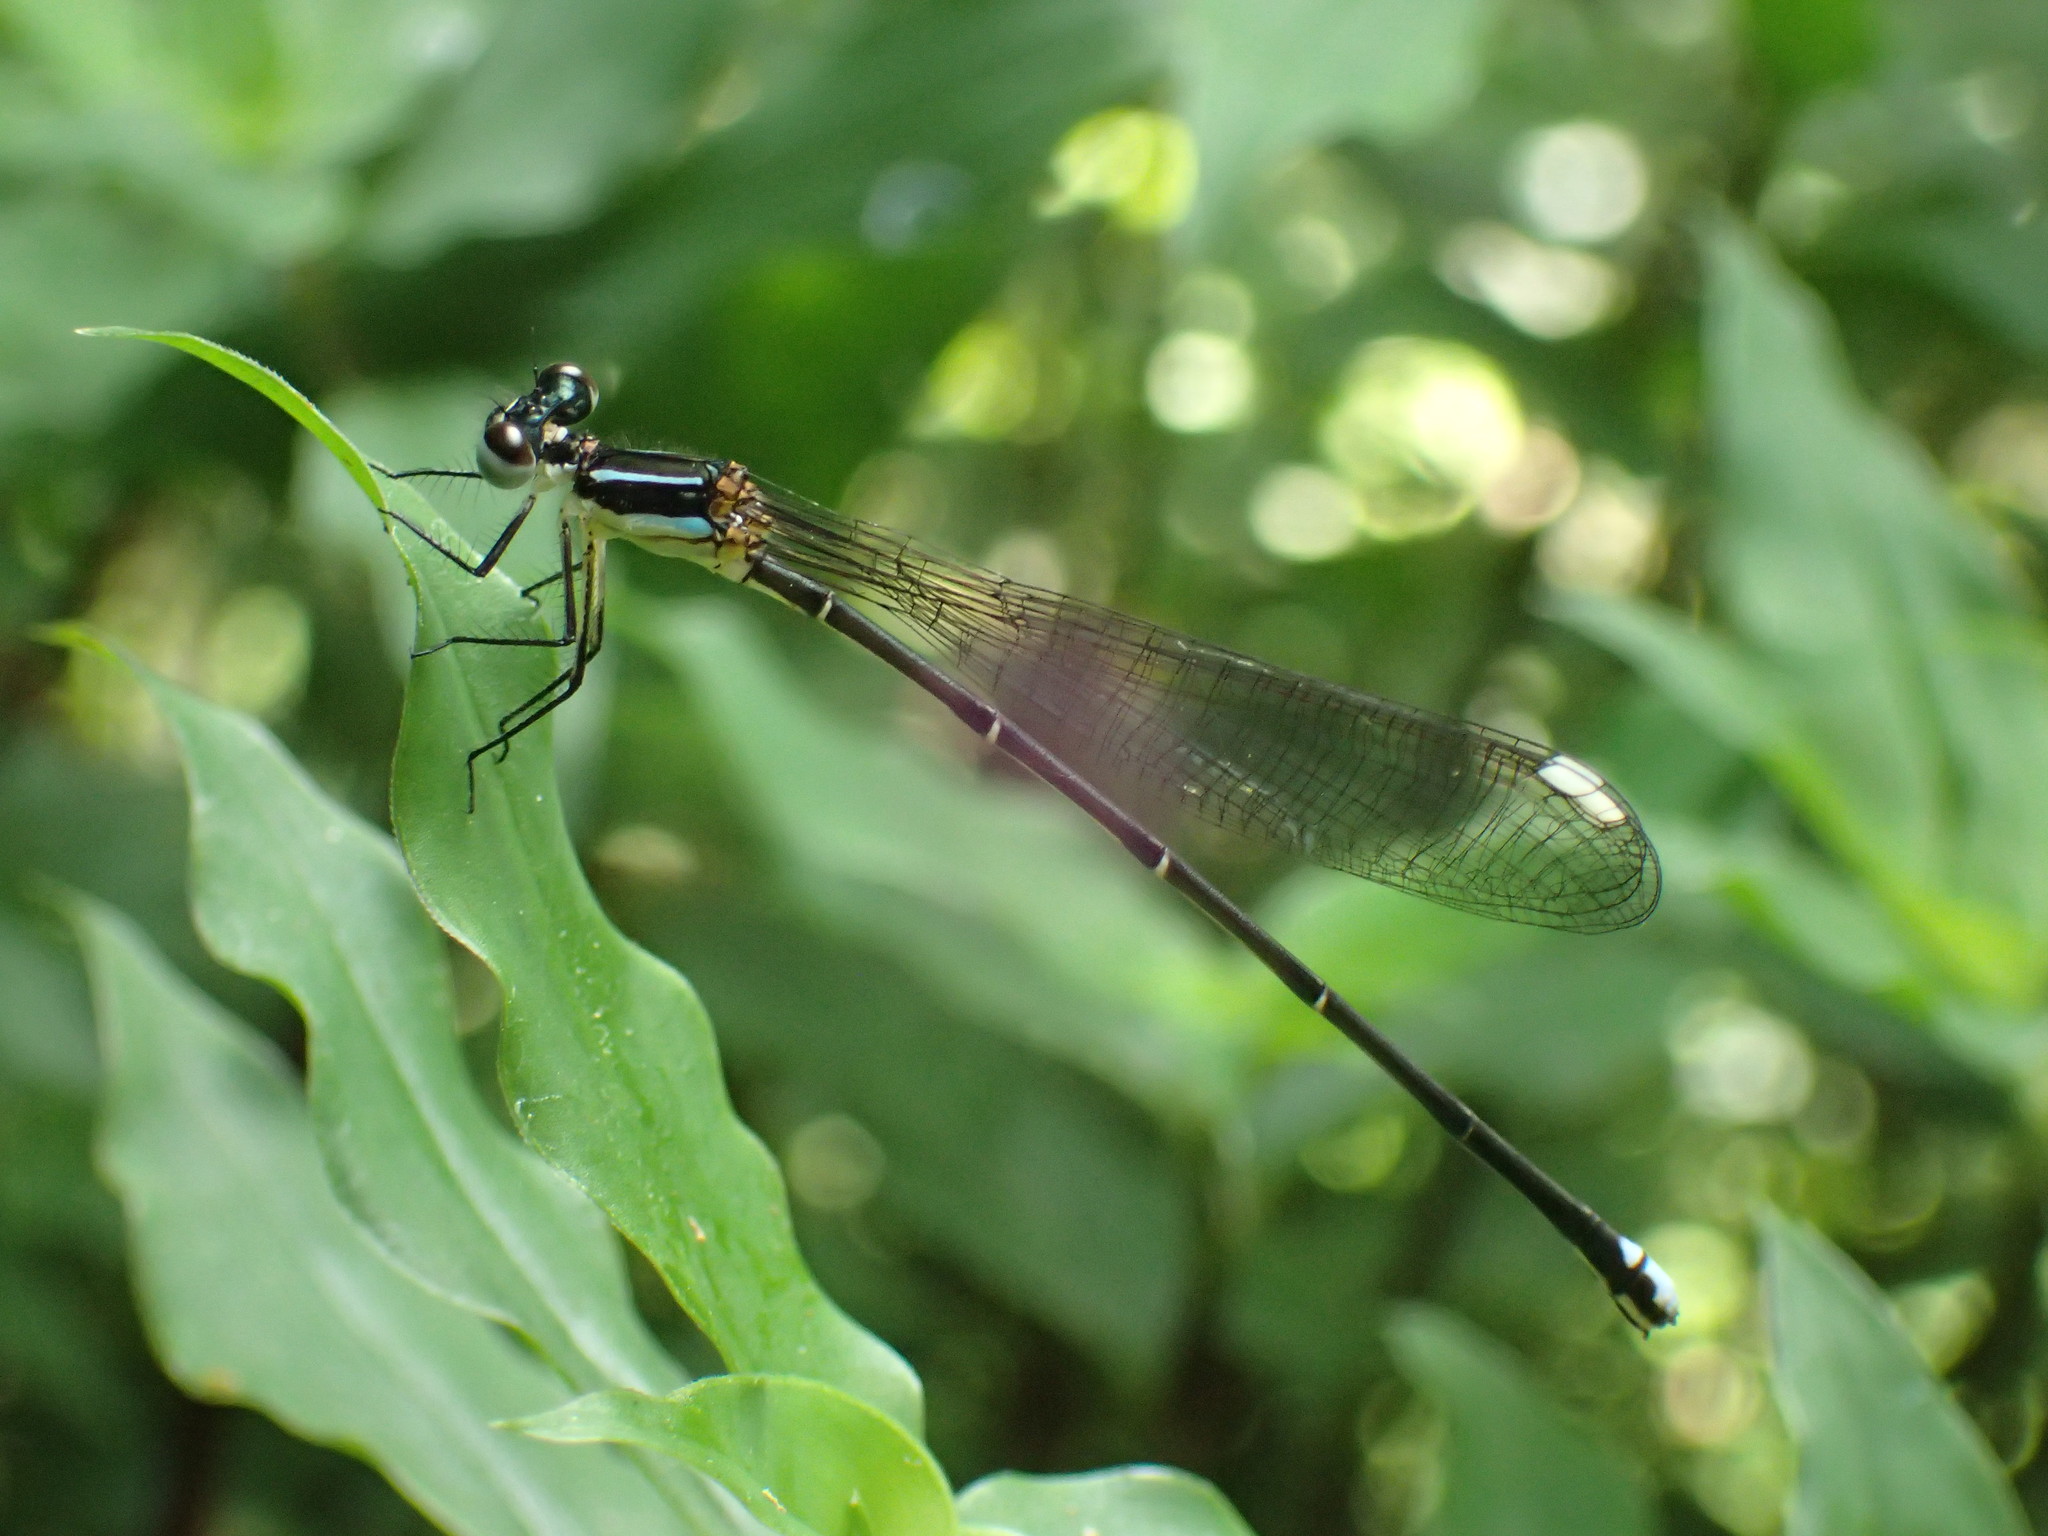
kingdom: Animalia
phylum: Arthropoda
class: Insecta
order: Odonata
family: Platycnemididae
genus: Allocnemis
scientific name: Allocnemis leucosticta
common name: Goldtail
